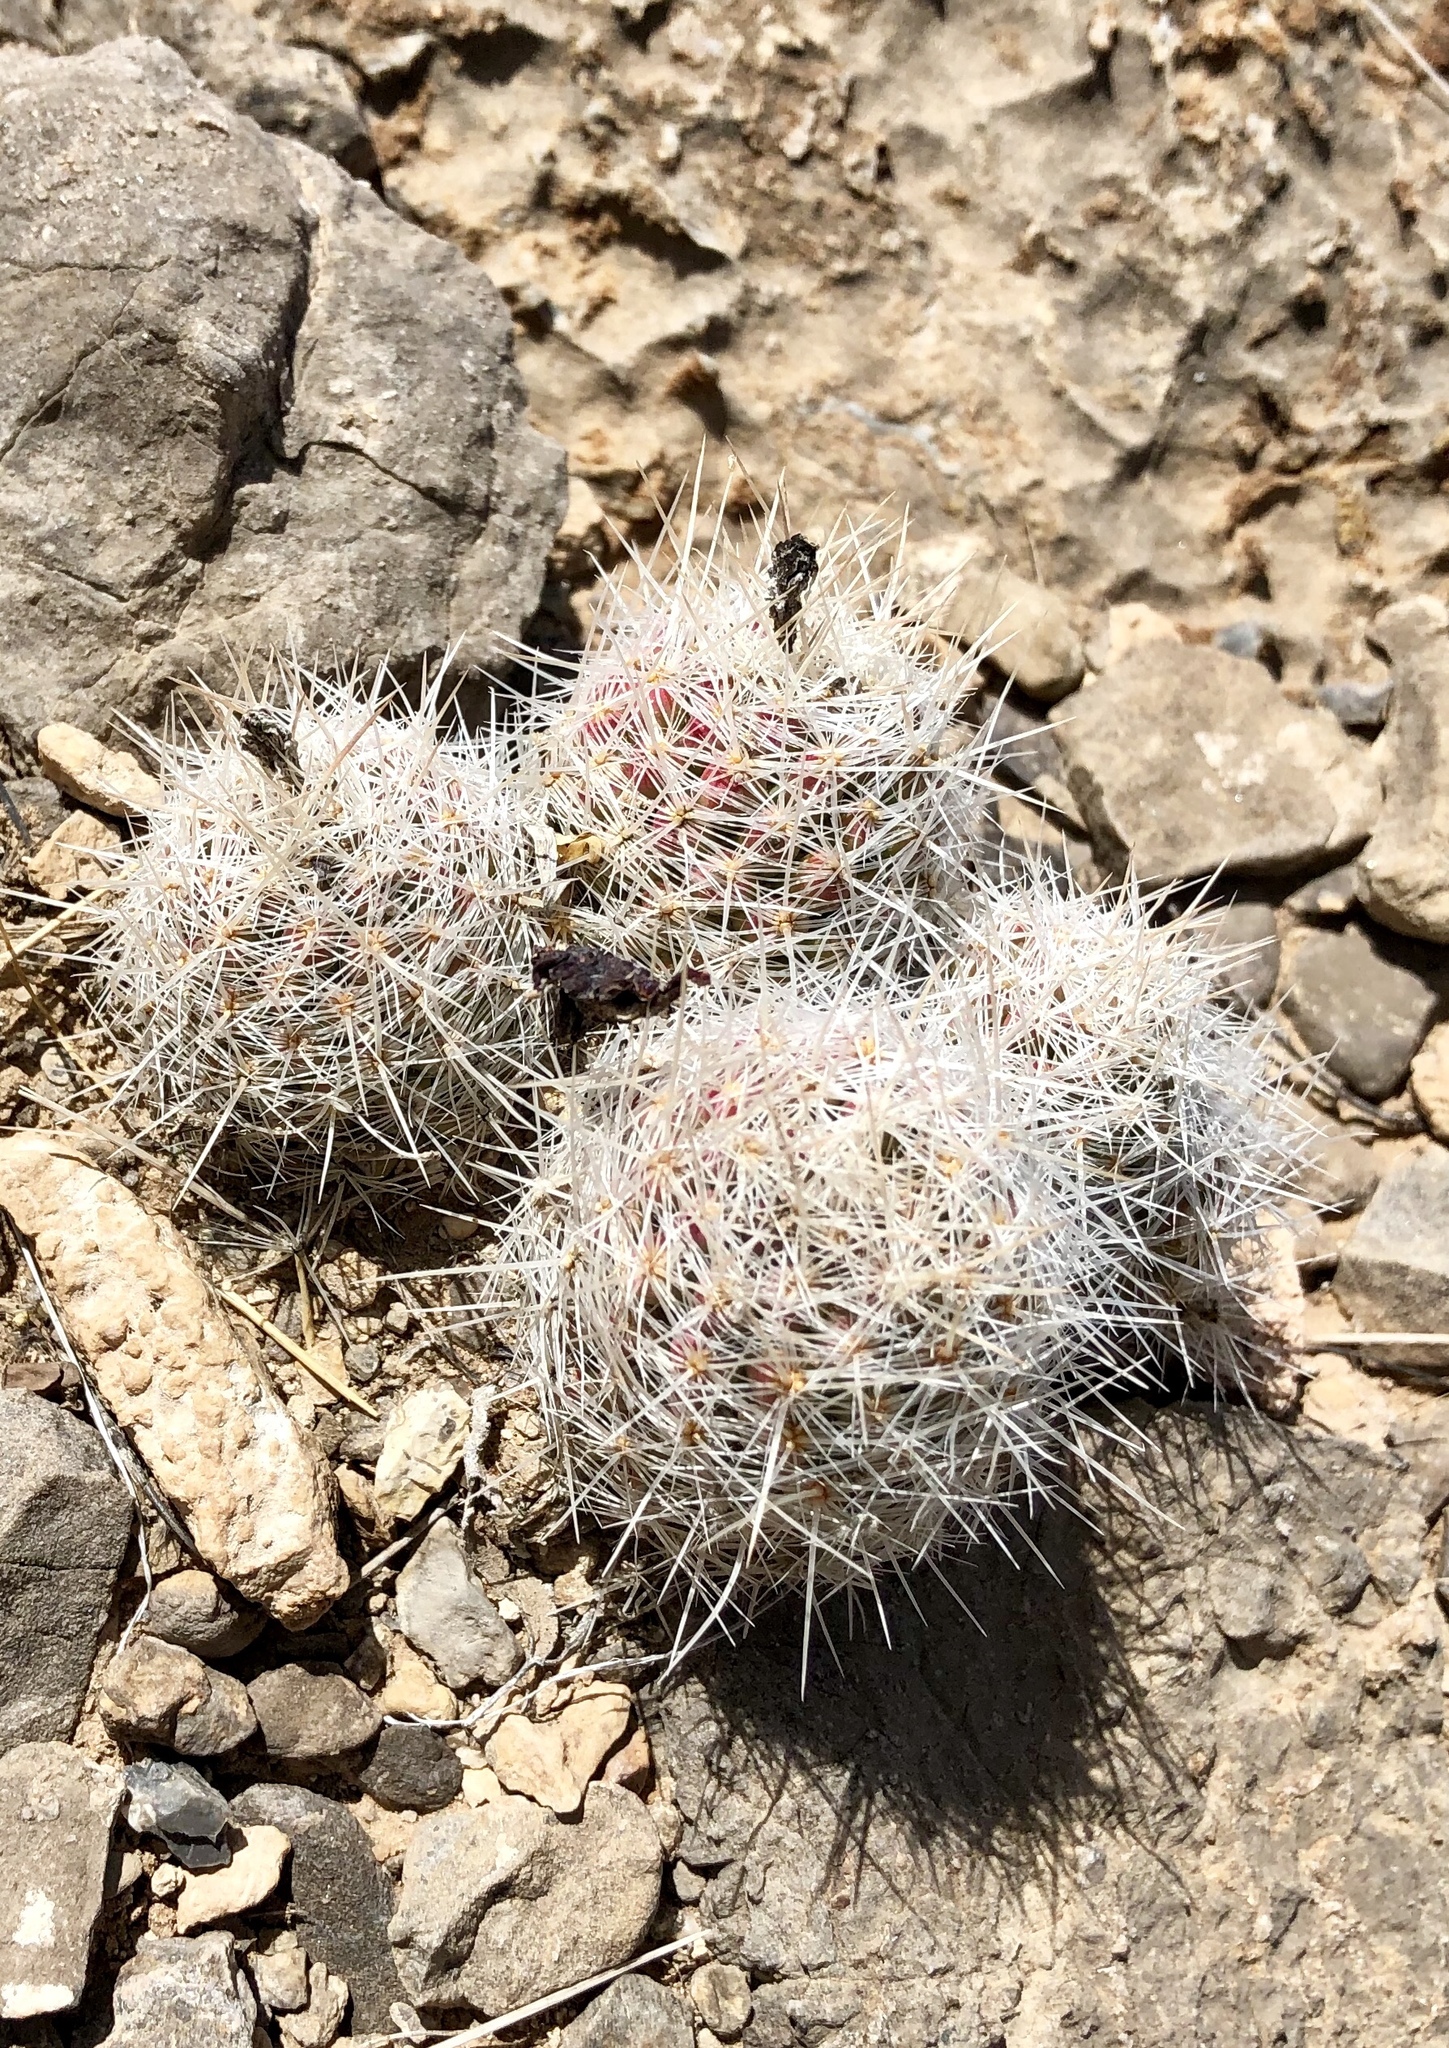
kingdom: Plantae
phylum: Tracheophyta
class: Magnoliopsida
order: Caryophyllales
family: Cactaceae
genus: Pelecyphora
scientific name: Pelecyphora tuberculosa
